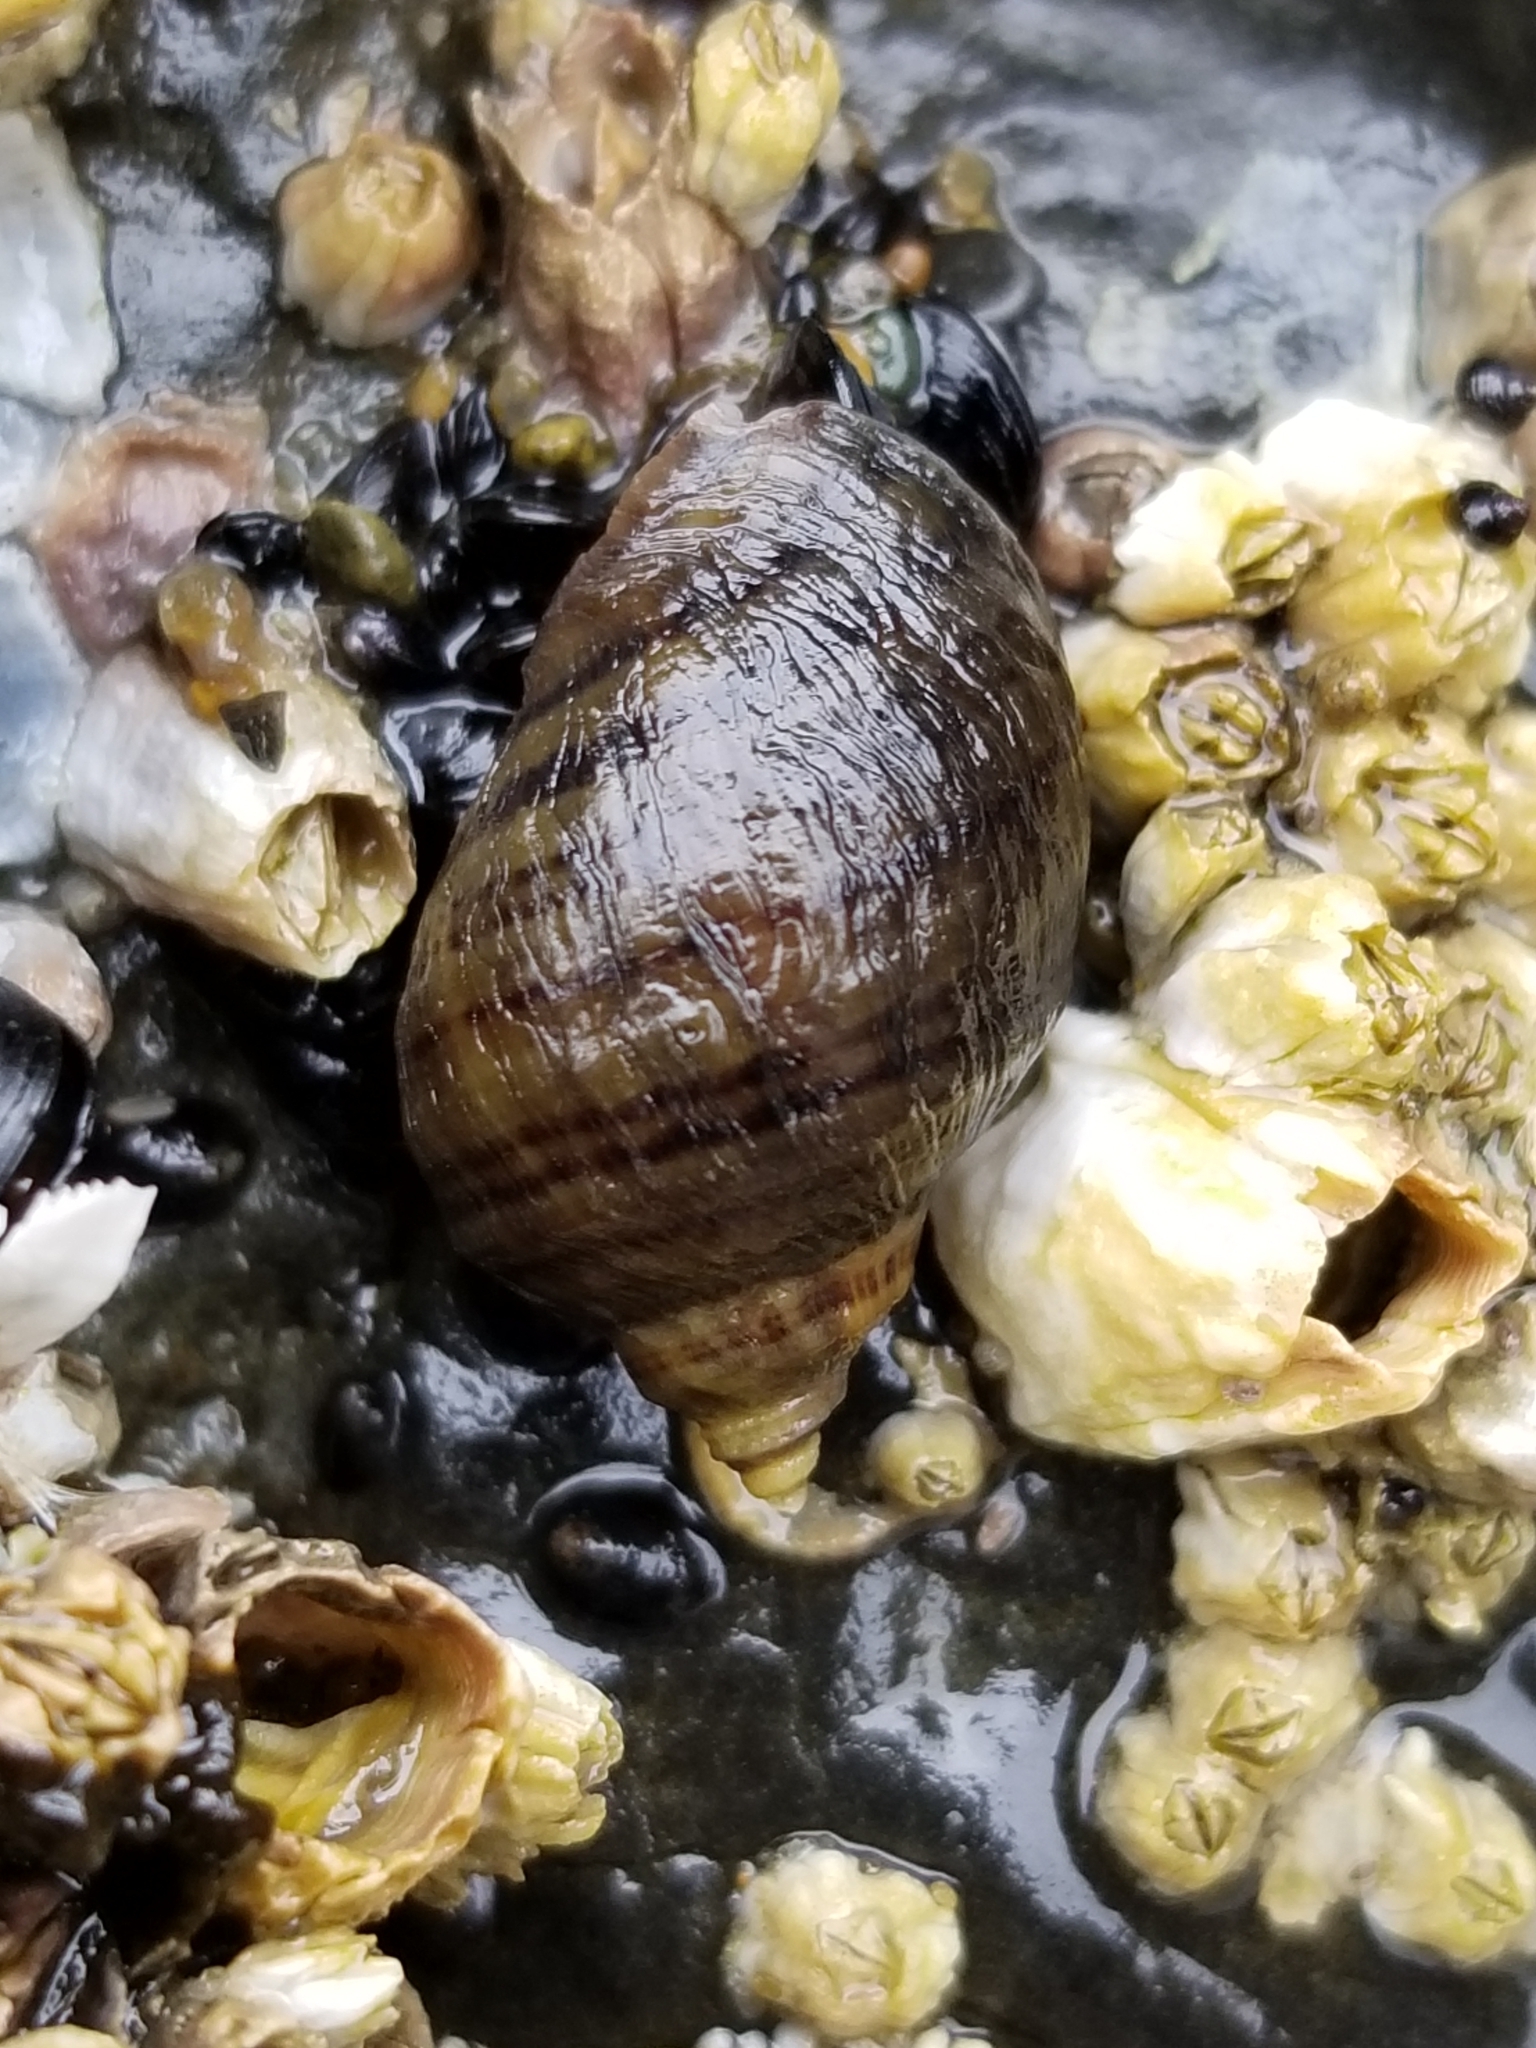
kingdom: Animalia
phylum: Mollusca
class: Gastropoda
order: Neogastropoda
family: Muricidae
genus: Nucella
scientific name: Nucella ostrina
